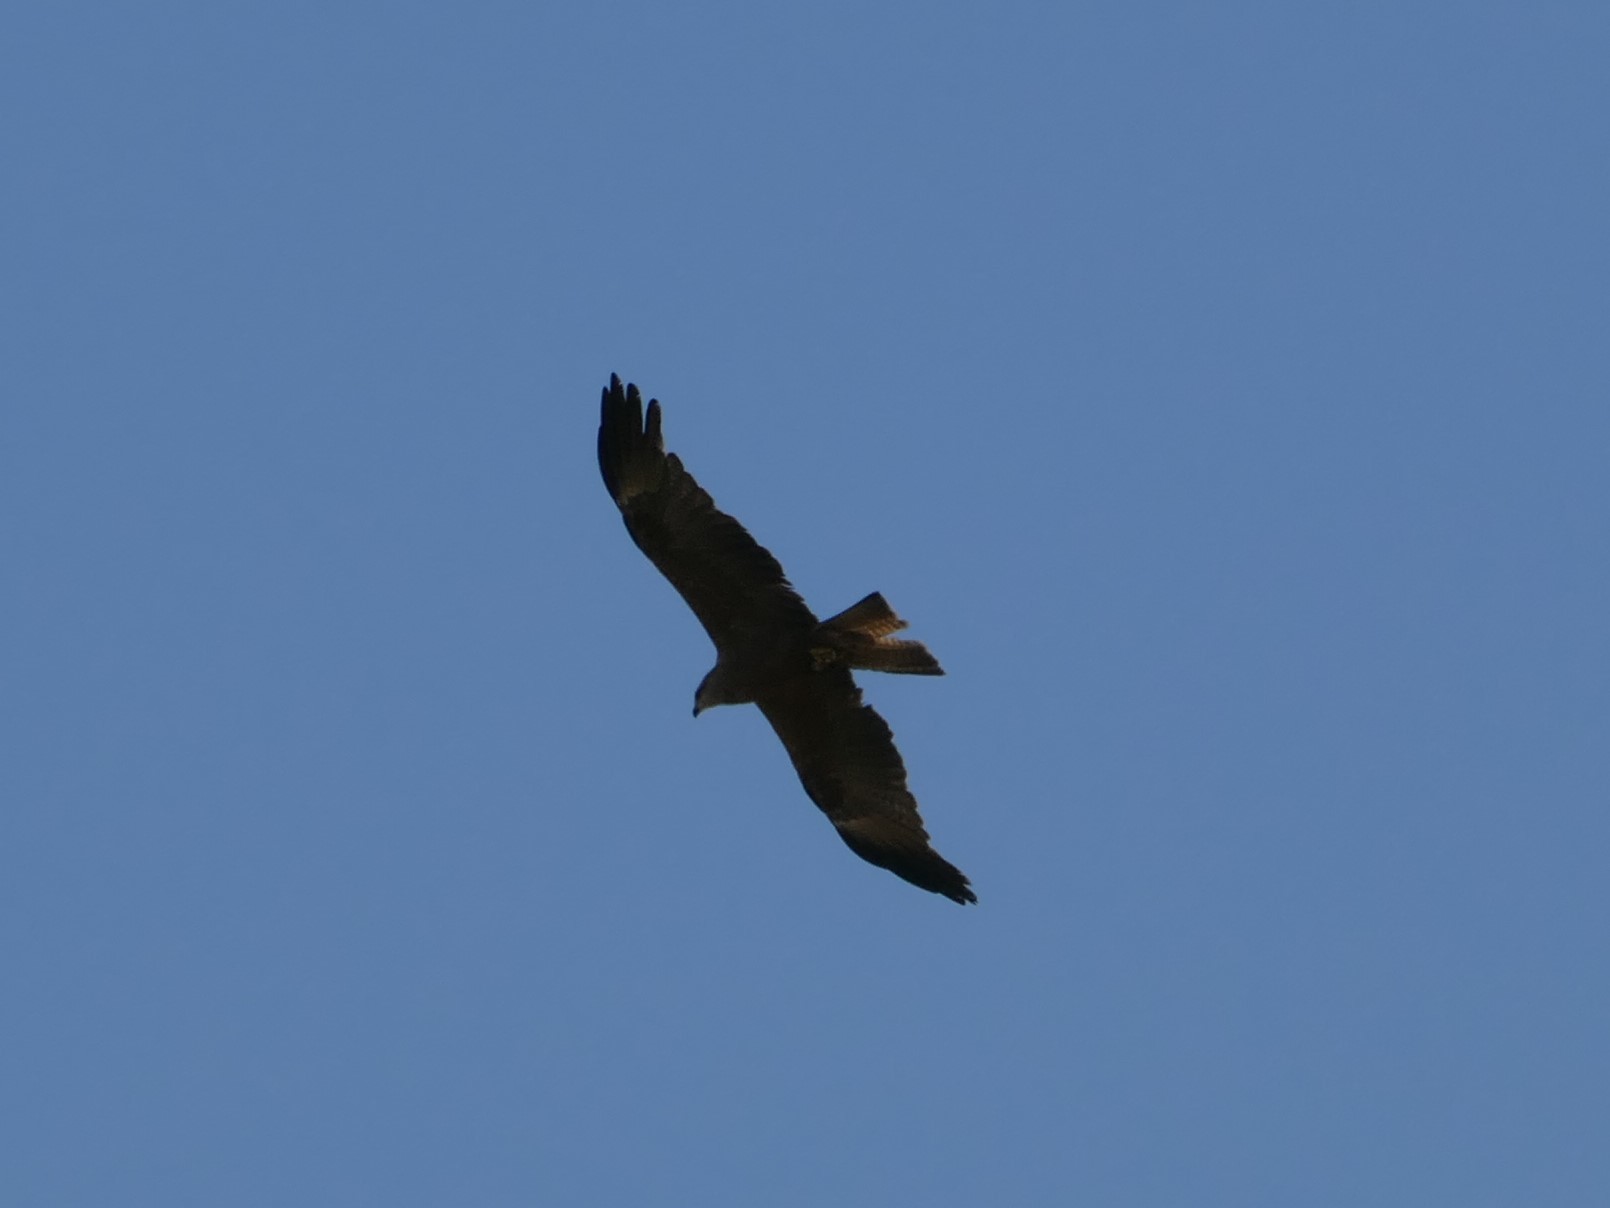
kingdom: Animalia
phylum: Chordata
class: Aves
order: Accipitriformes
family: Accipitridae
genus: Milvus
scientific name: Milvus migrans
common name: Black kite
